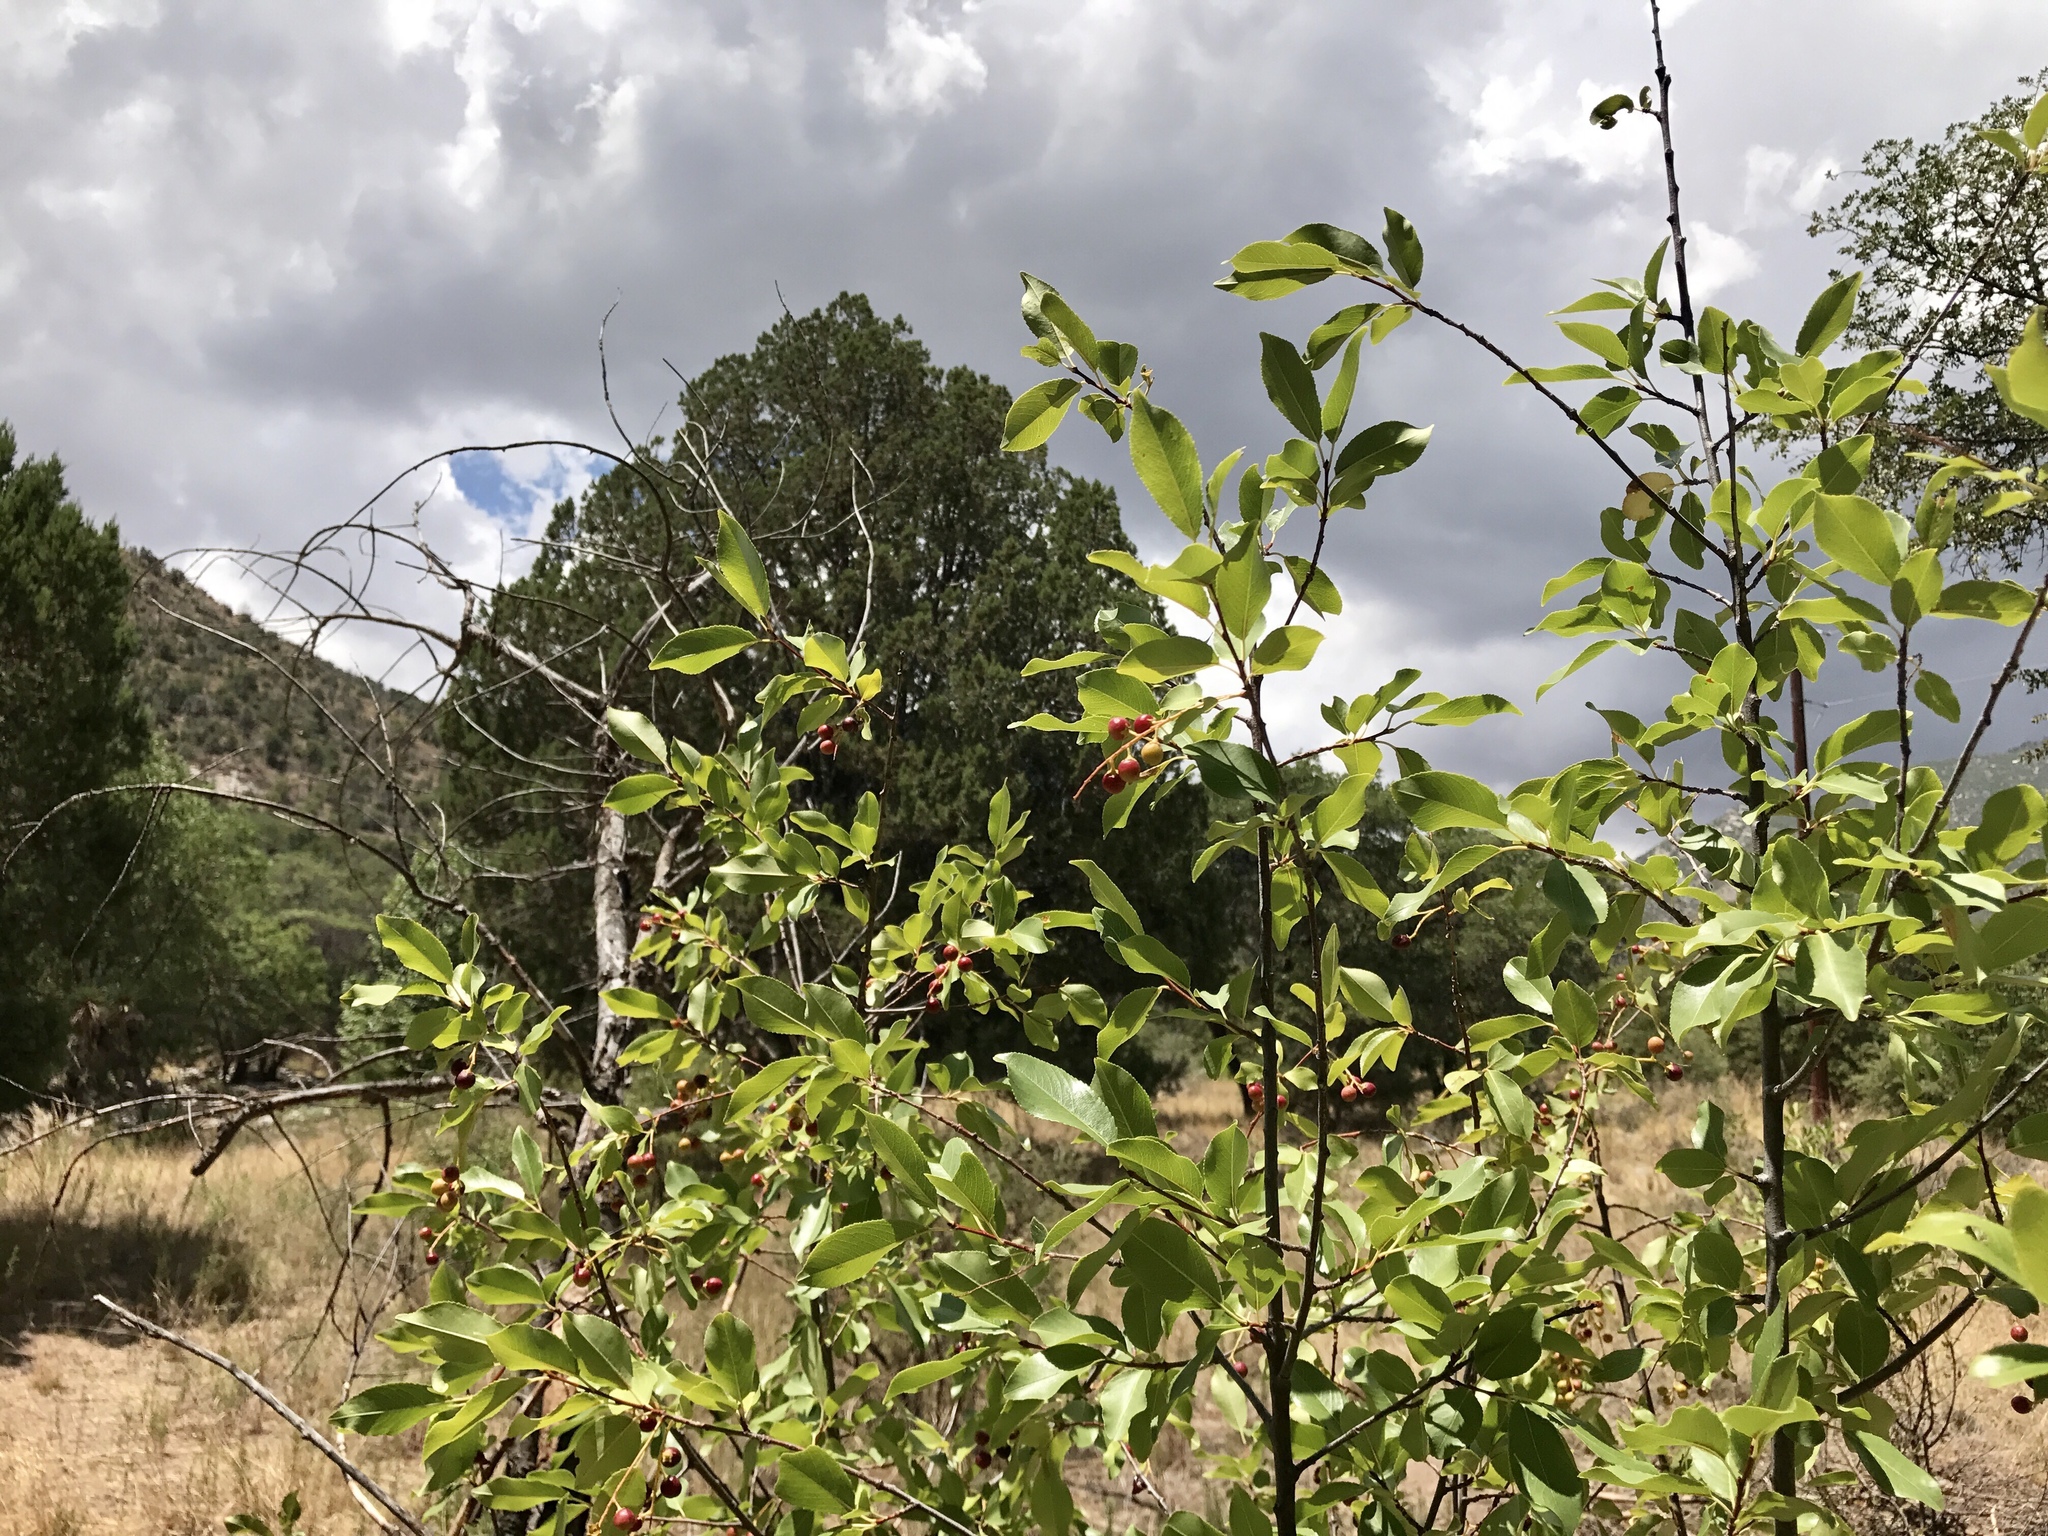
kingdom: Plantae
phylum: Tracheophyta
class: Magnoliopsida
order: Rosales
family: Rosaceae
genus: Prunus
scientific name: Prunus serotina
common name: Black cherry
